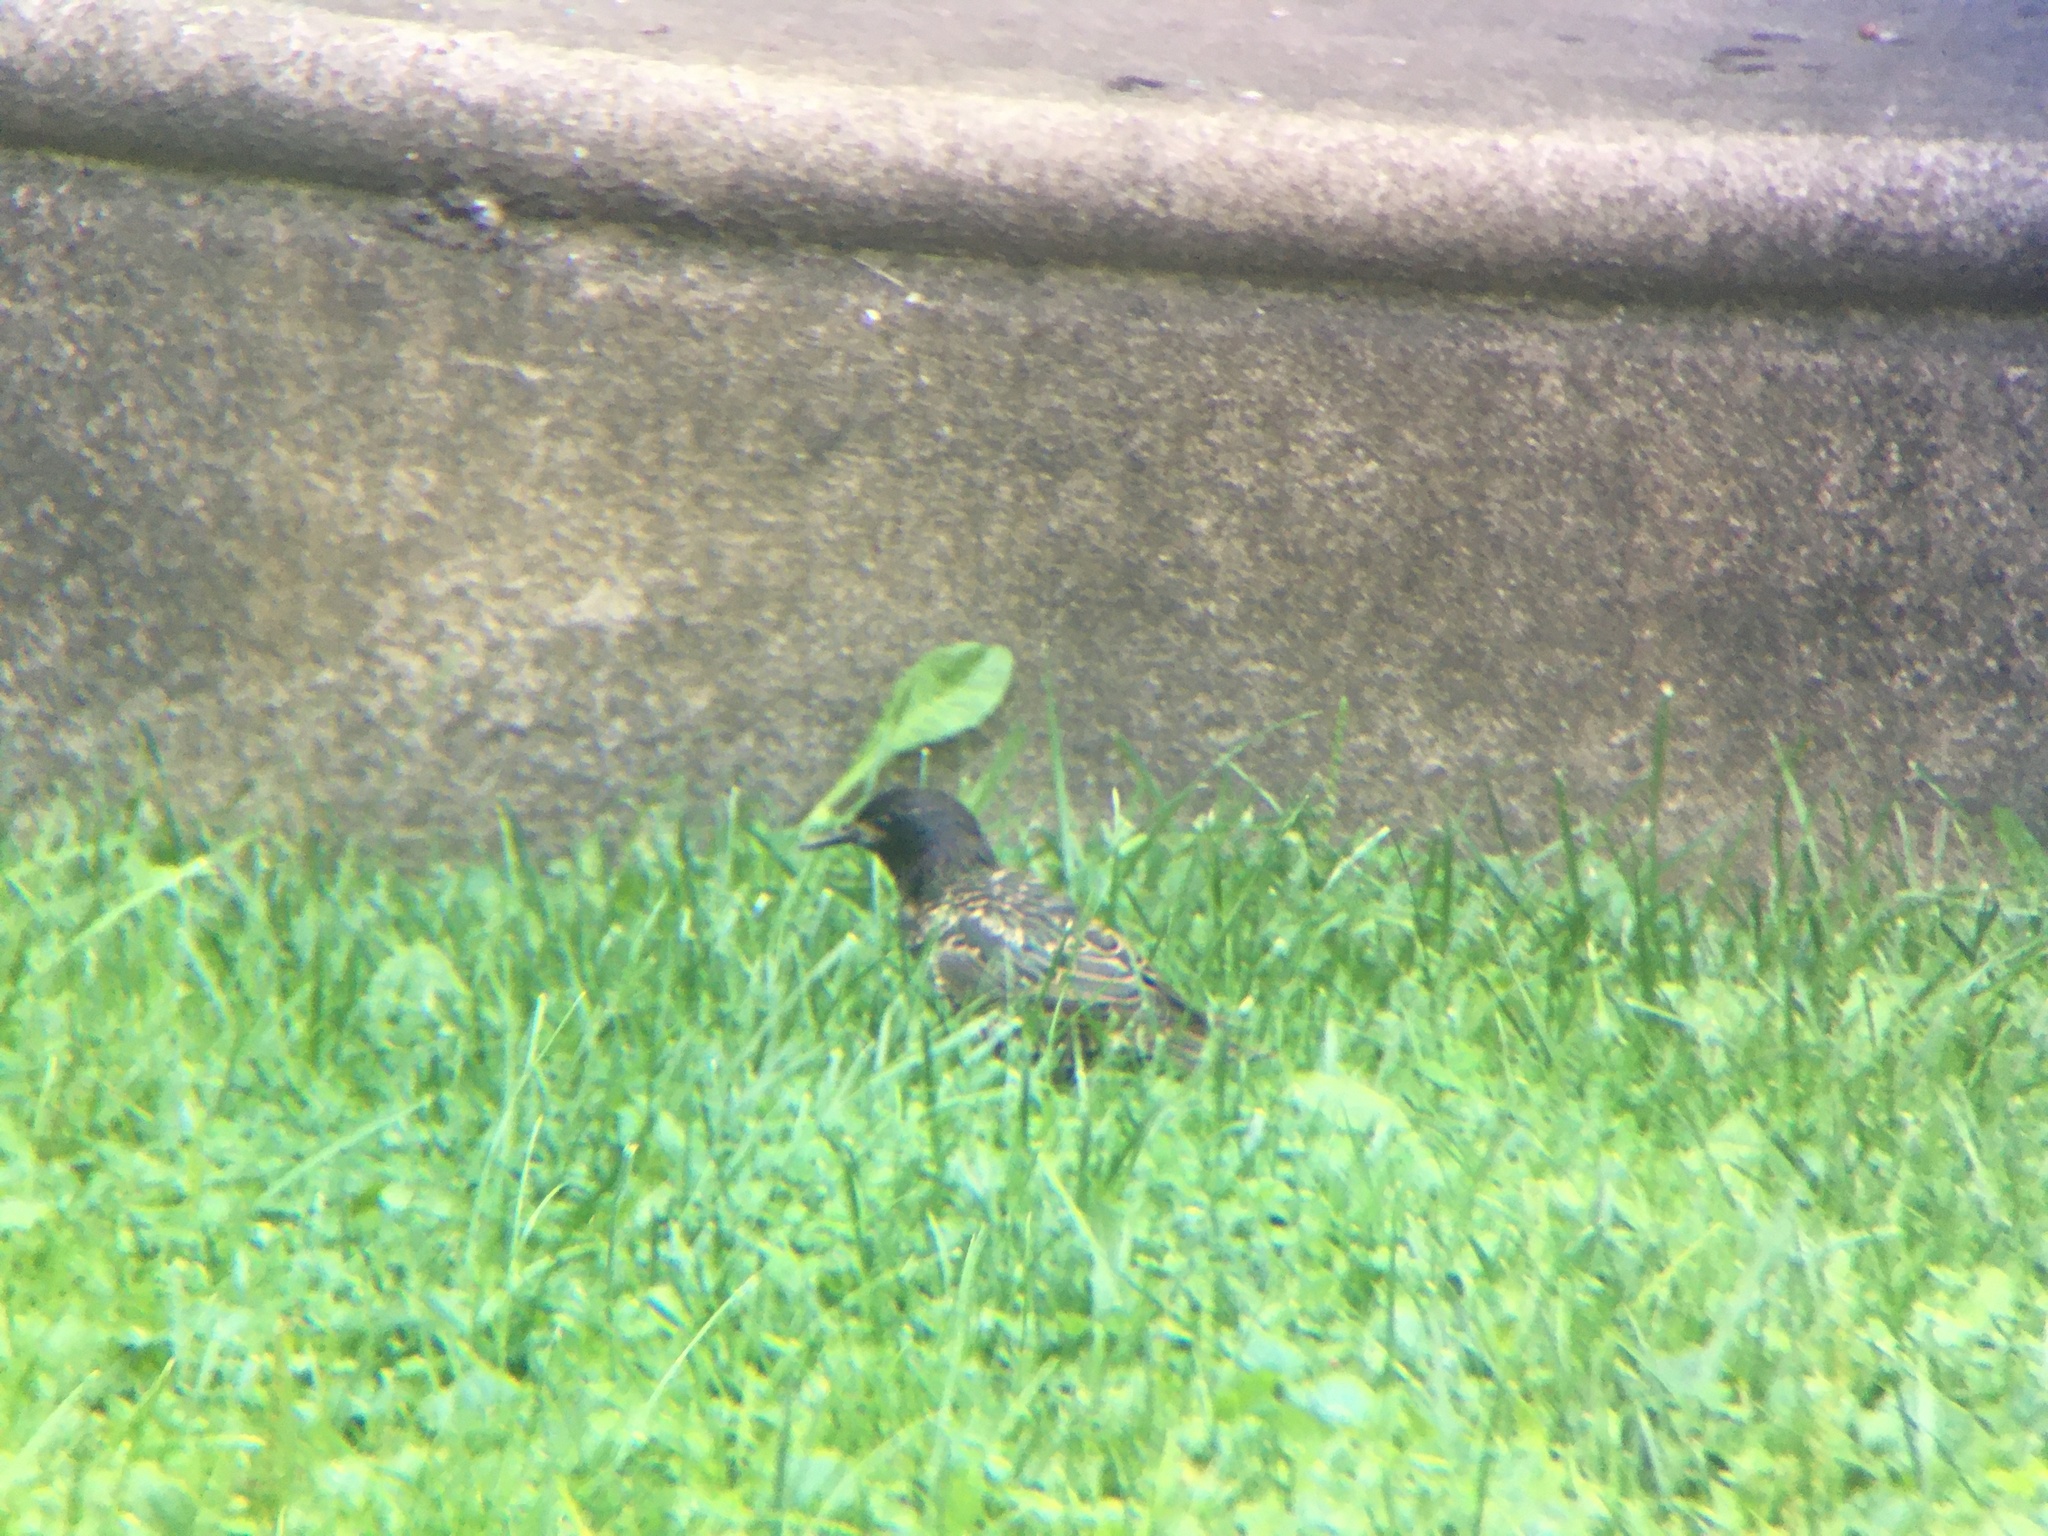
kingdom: Animalia
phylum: Chordata
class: Aves
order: Passeriformes
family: Sturnidae
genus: Sturnus
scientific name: Sturnus vulgaris
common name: Common starling
